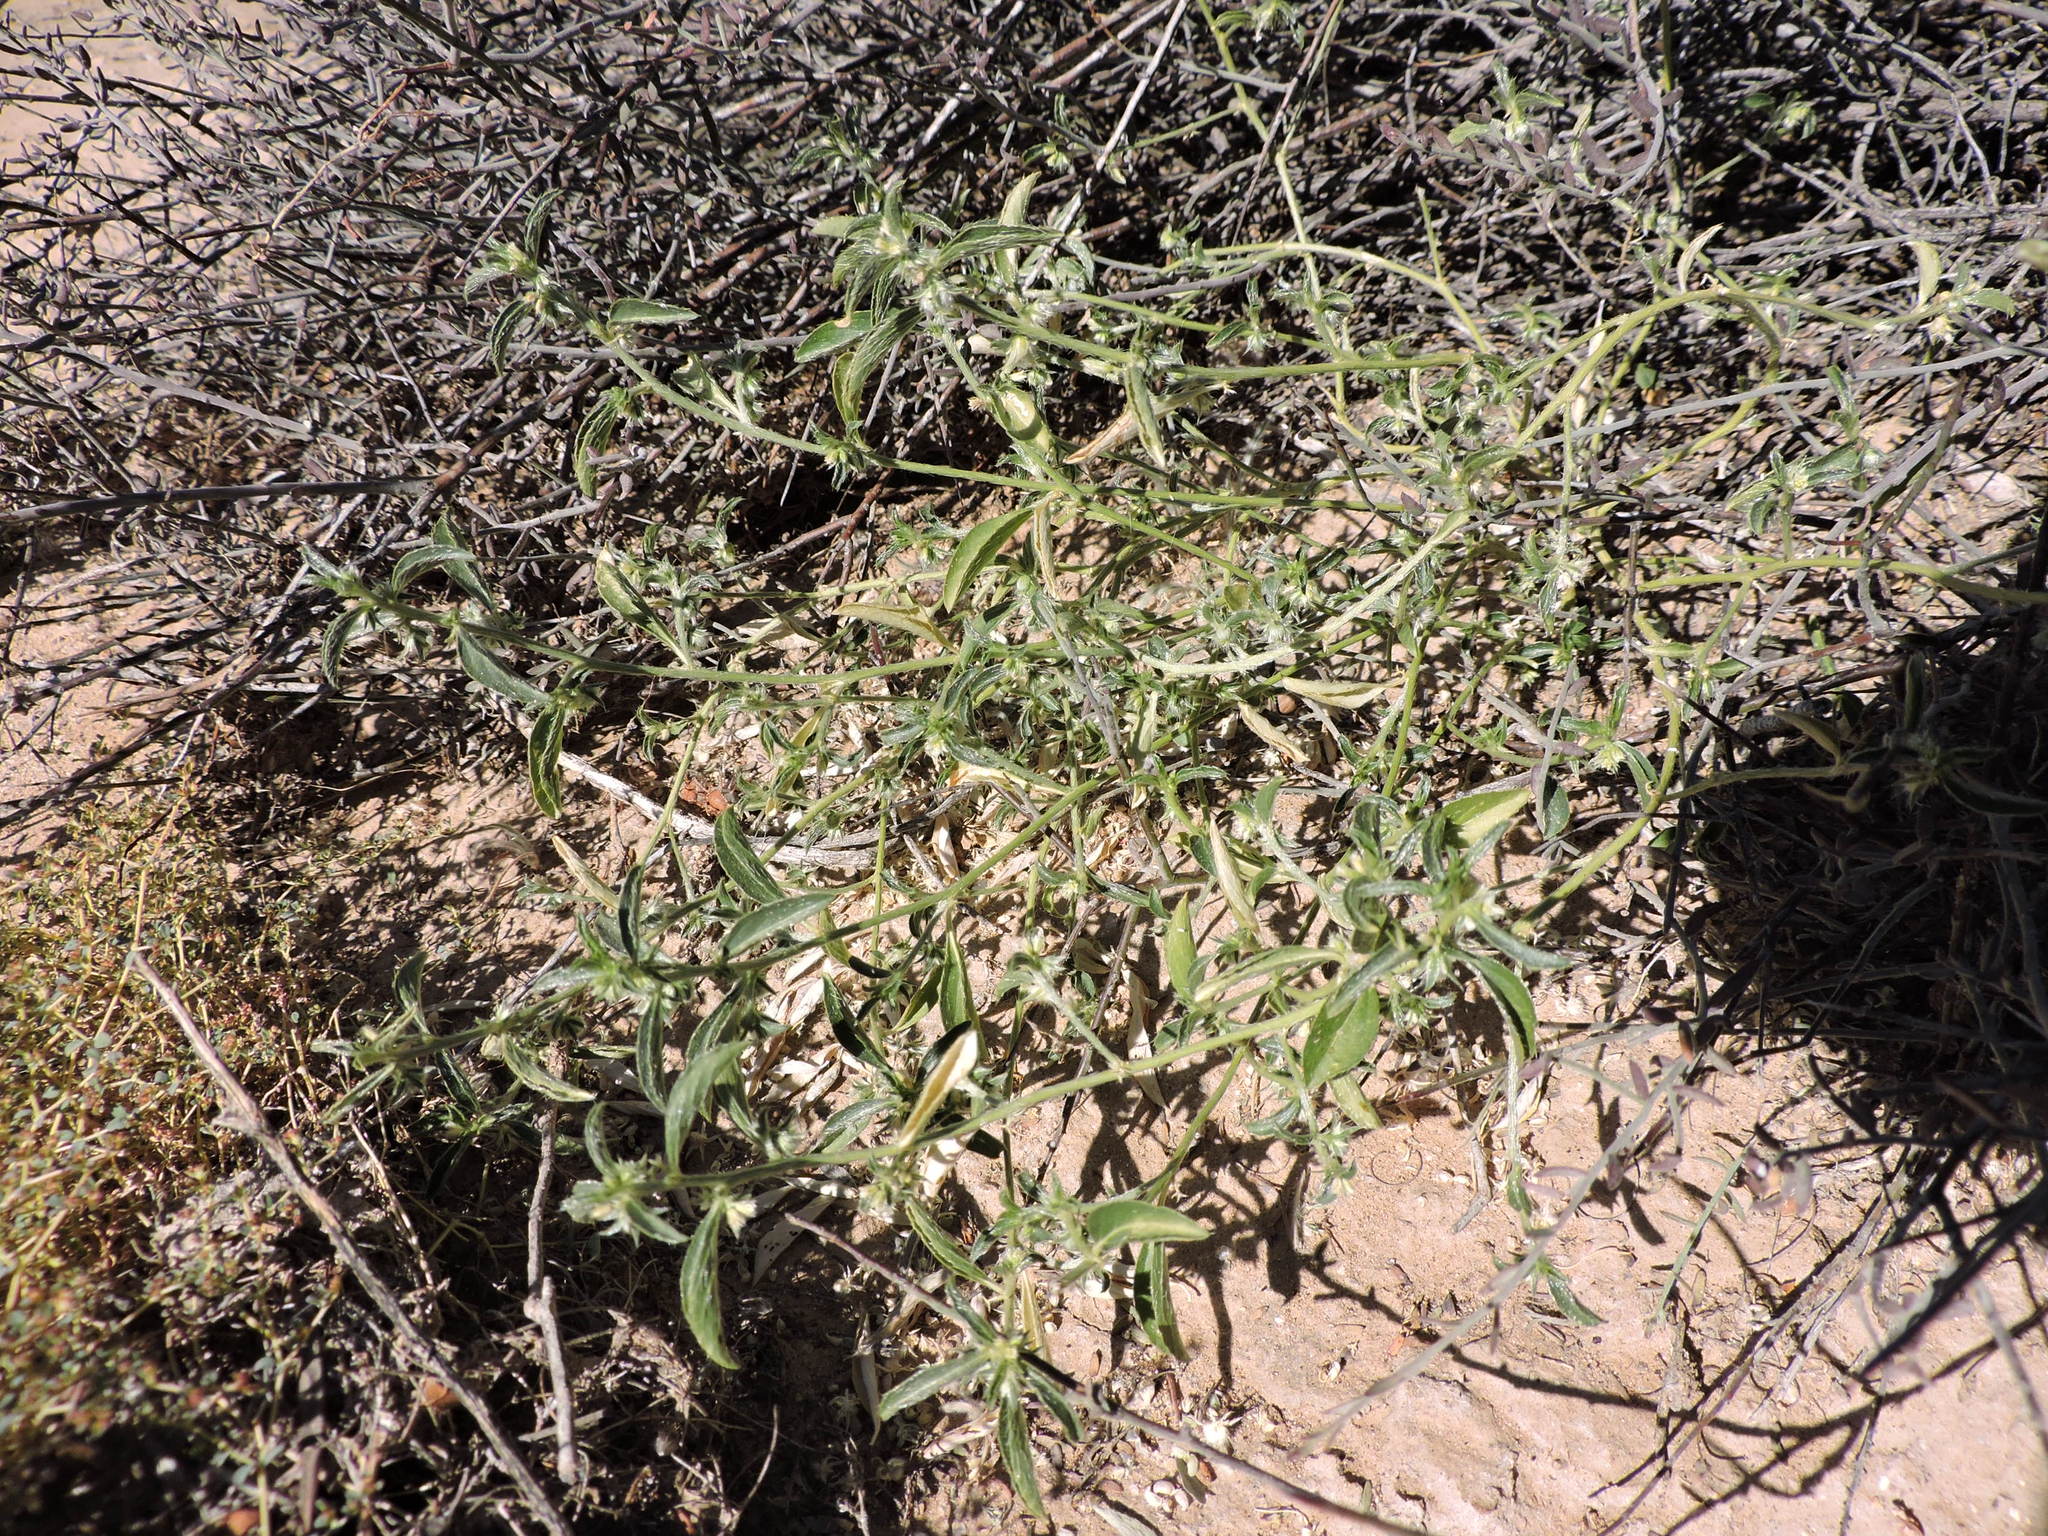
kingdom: Plantae
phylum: Tracheophyta
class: Magnoliopsida
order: Malpighiales
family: Euphorbiaceae
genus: Ditaxis
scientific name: Ditaxis serrata
